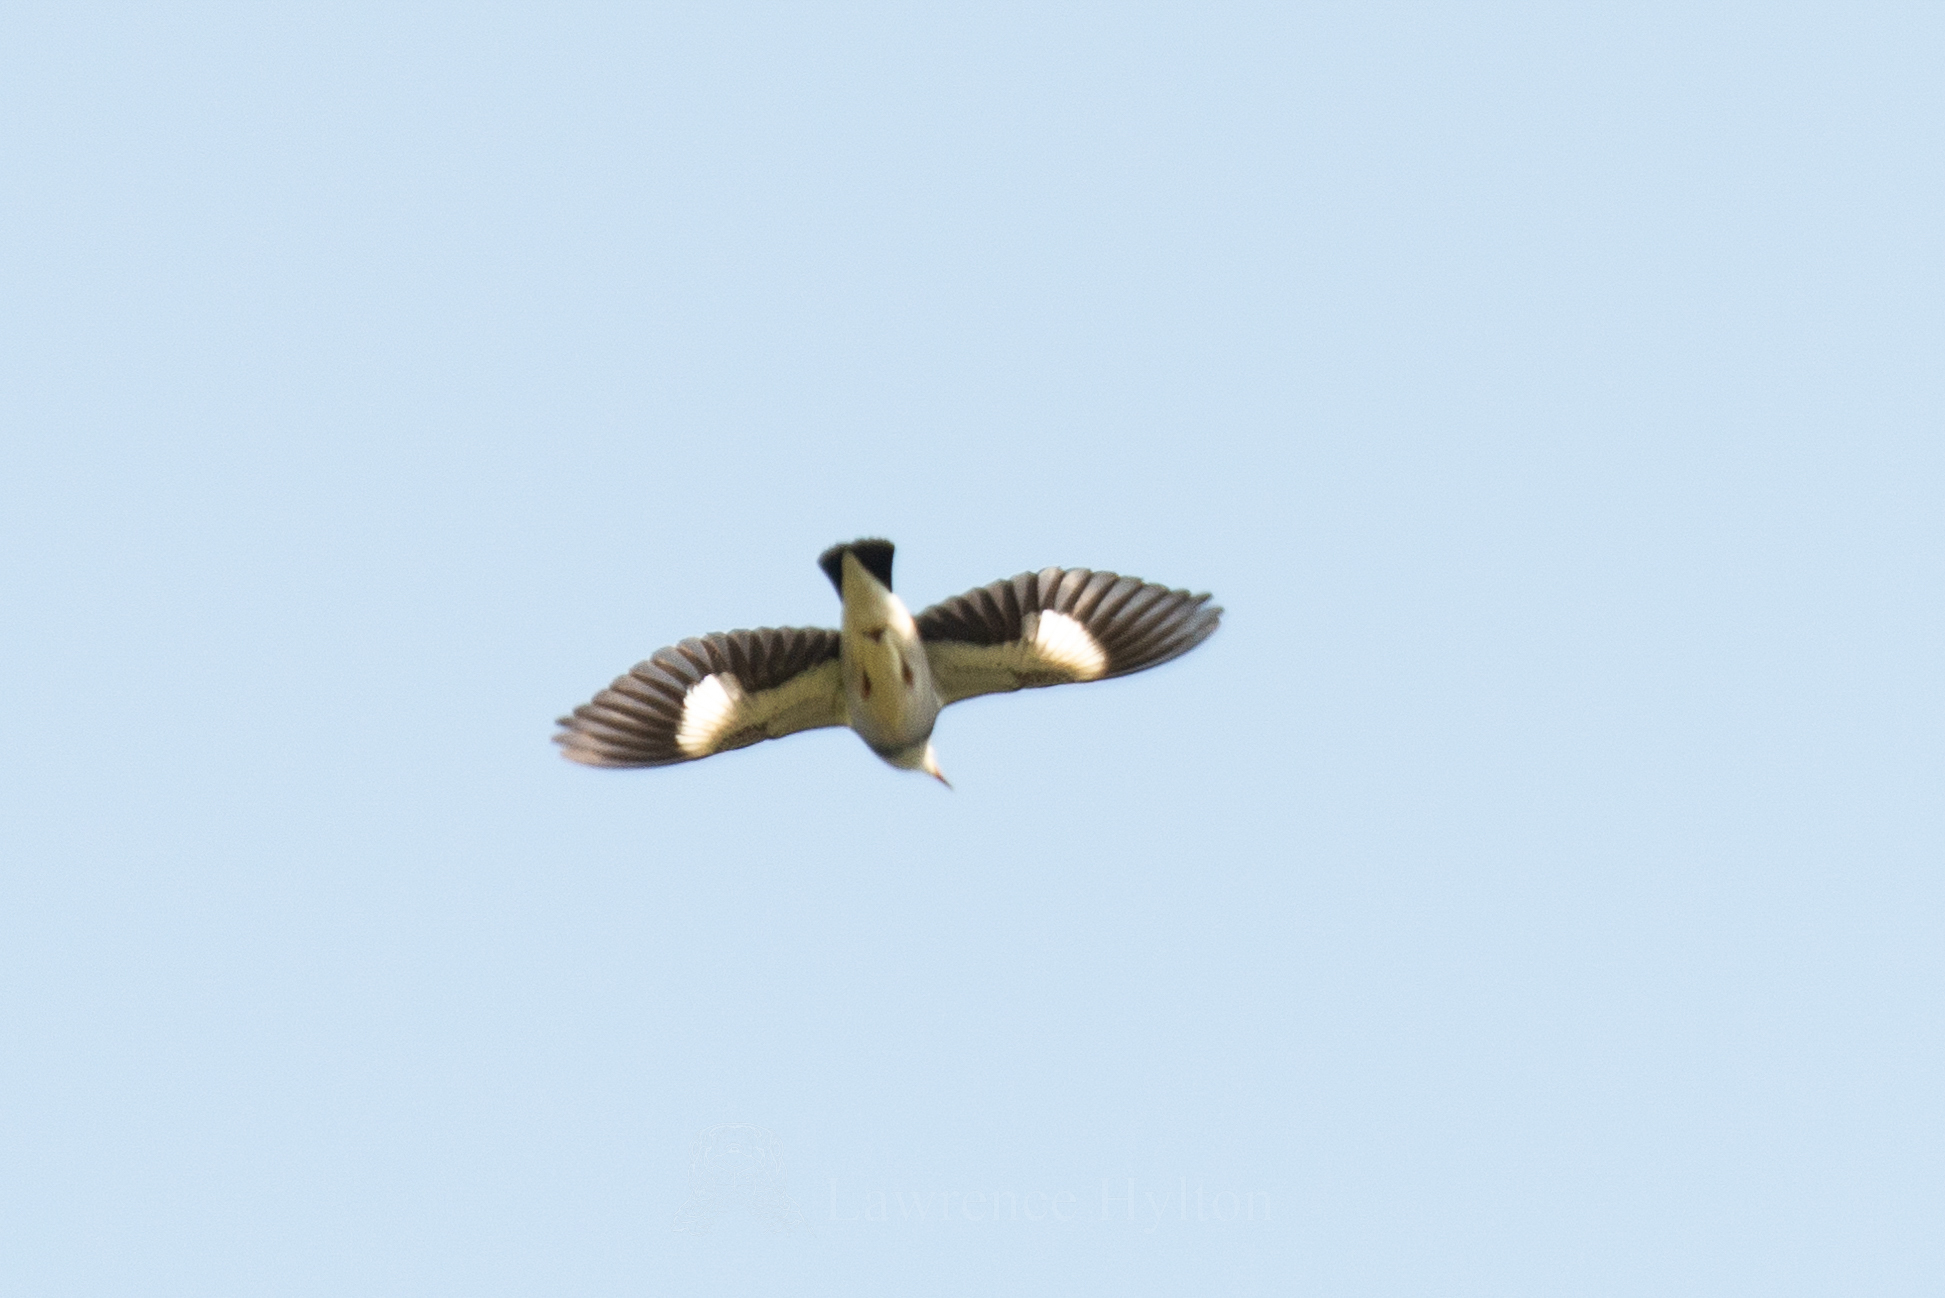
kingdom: Animalia
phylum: Chordata
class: Aves
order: Passeriformes
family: Sturnidae
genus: Spodiopsar
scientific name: Spodiopsar sericeus
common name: Red-billed starling
